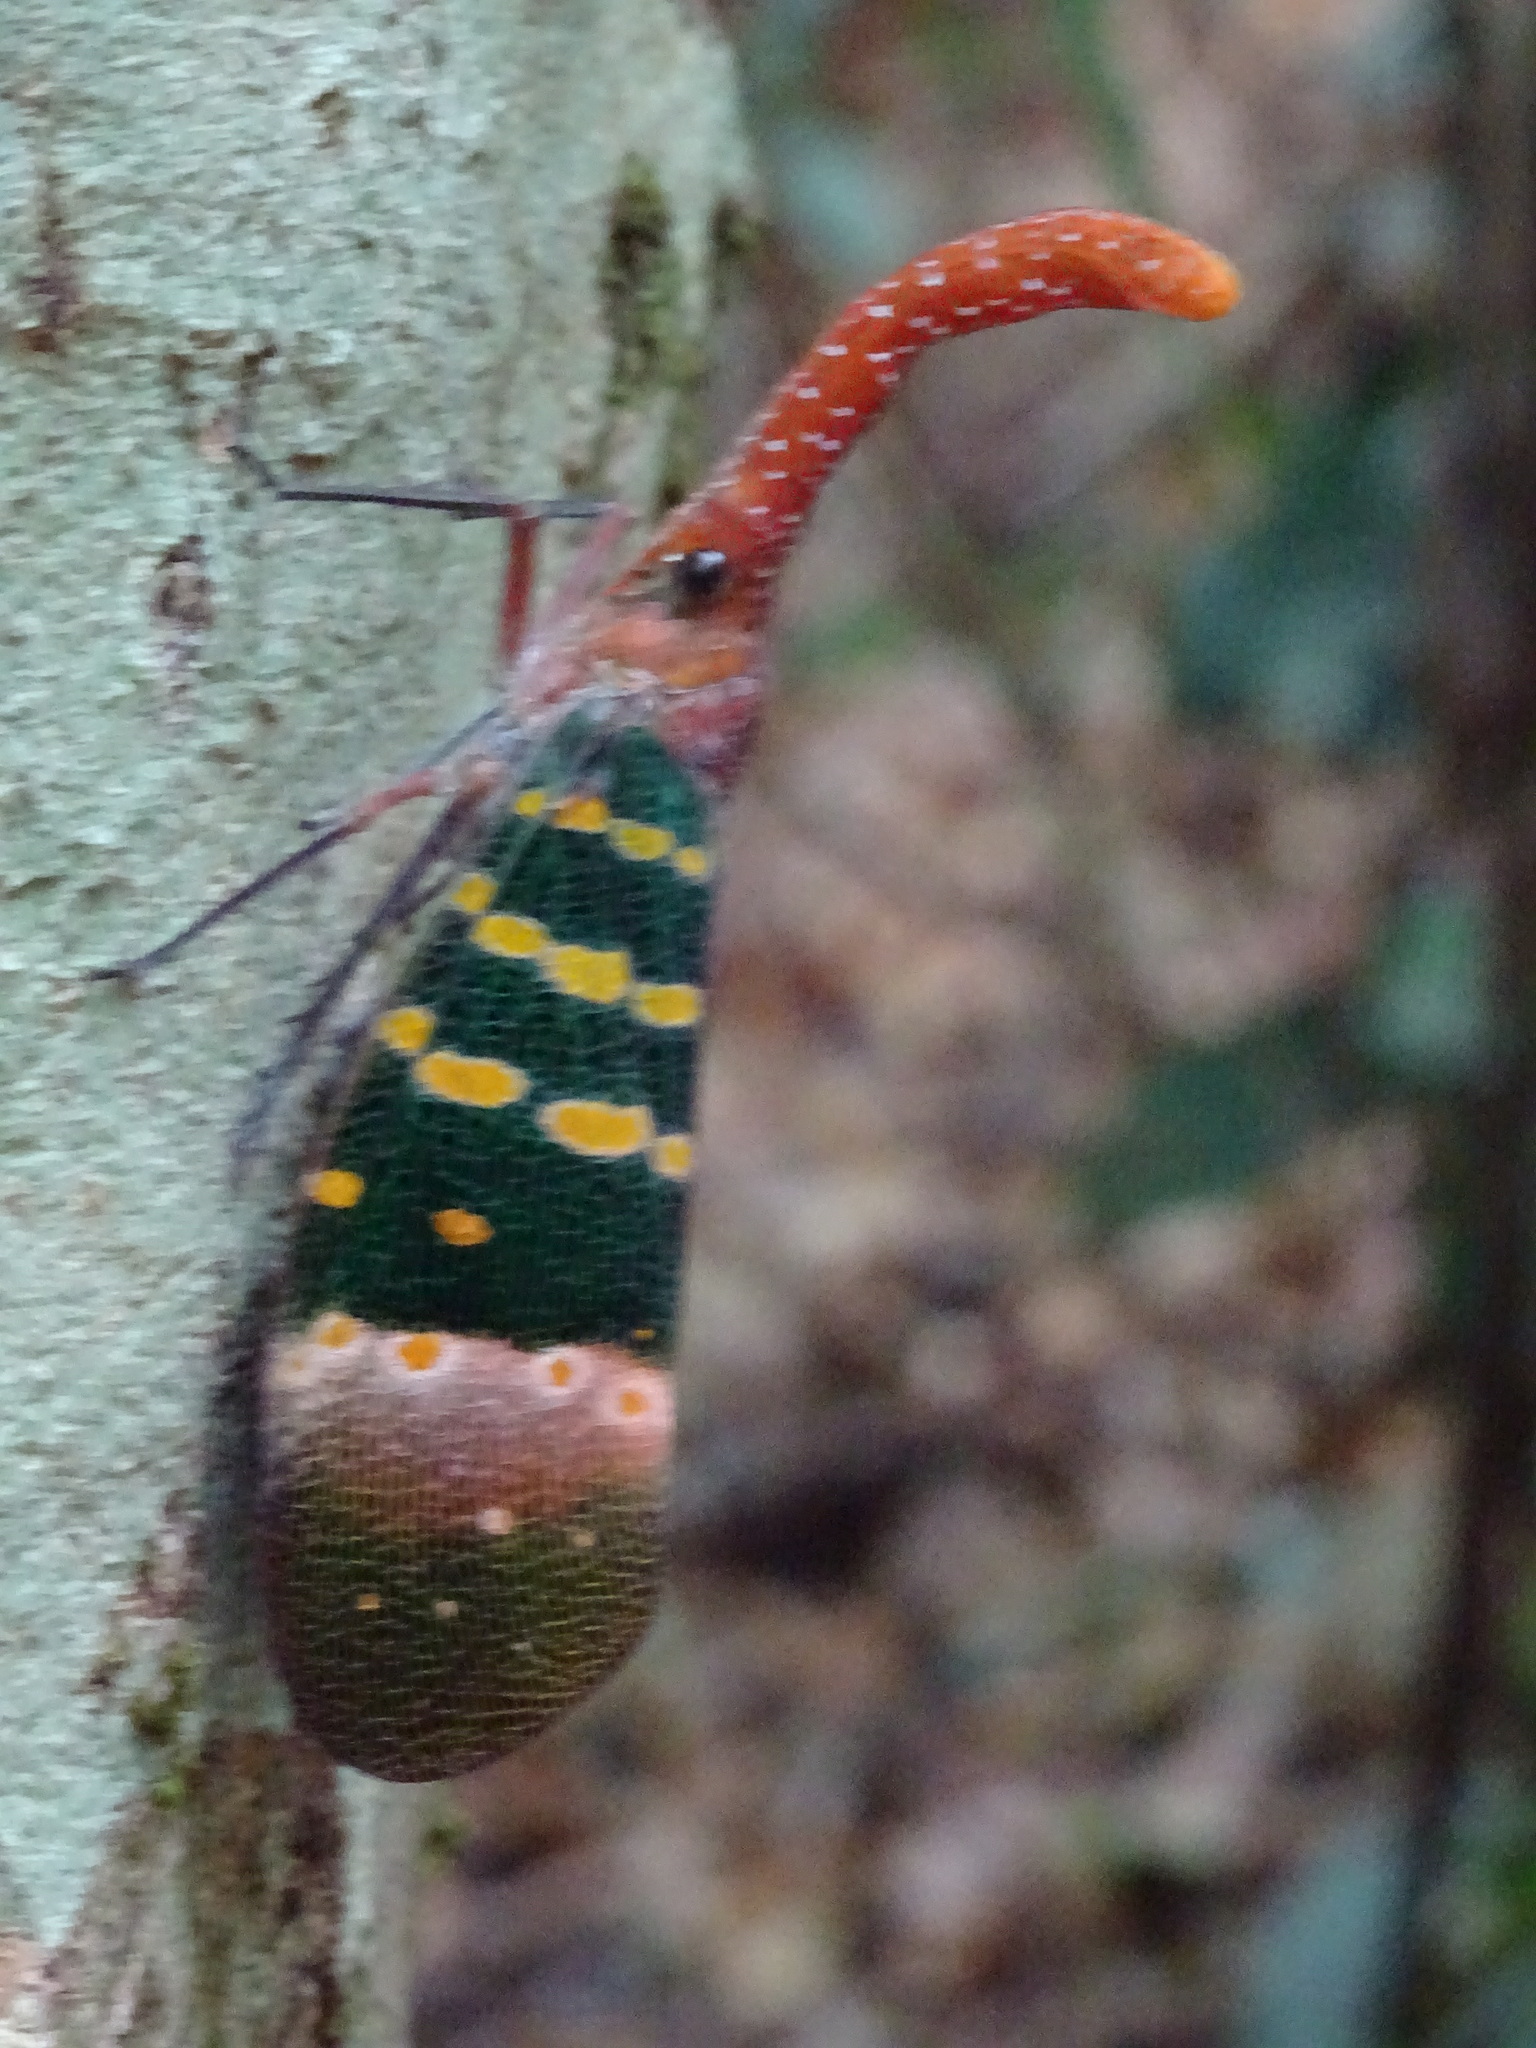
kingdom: Animalia
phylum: Arthropoda
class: Insecta
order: Hemiptera
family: Fulgoridae
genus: Pyrops
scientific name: Pyrops karenius
